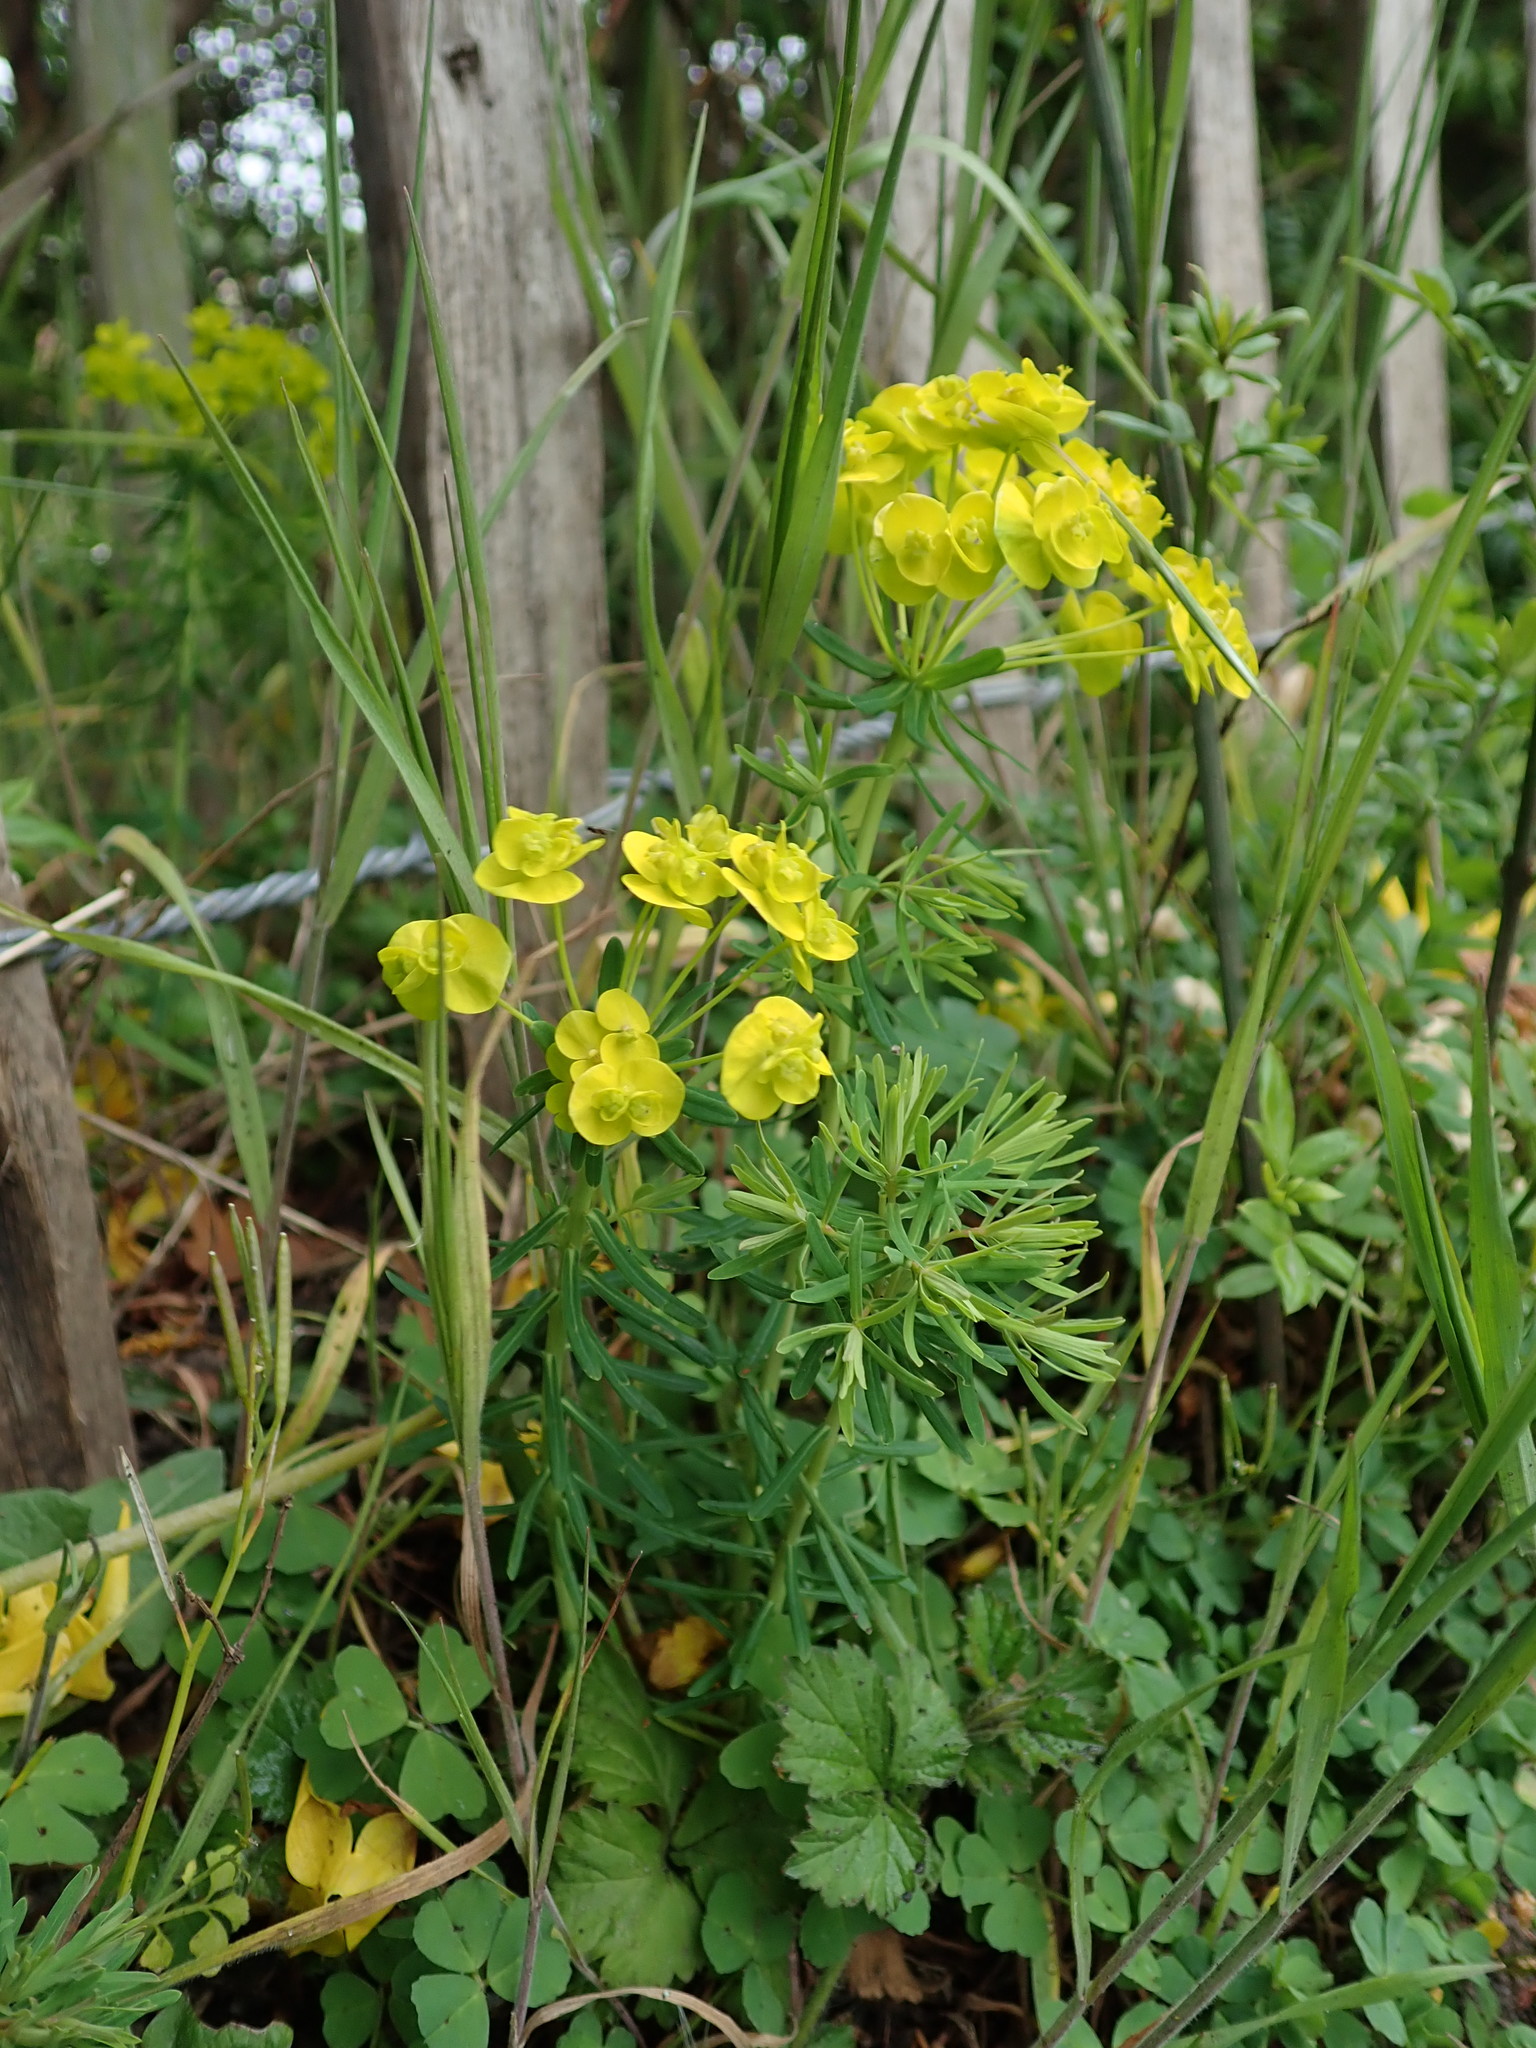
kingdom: Plantae
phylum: Tracheophyta
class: Magnoliopsida
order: Malpighiales
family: Euphorbiaceae
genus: Euphorbia
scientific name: Euphorbia cyparissias
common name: Cypress spurge
